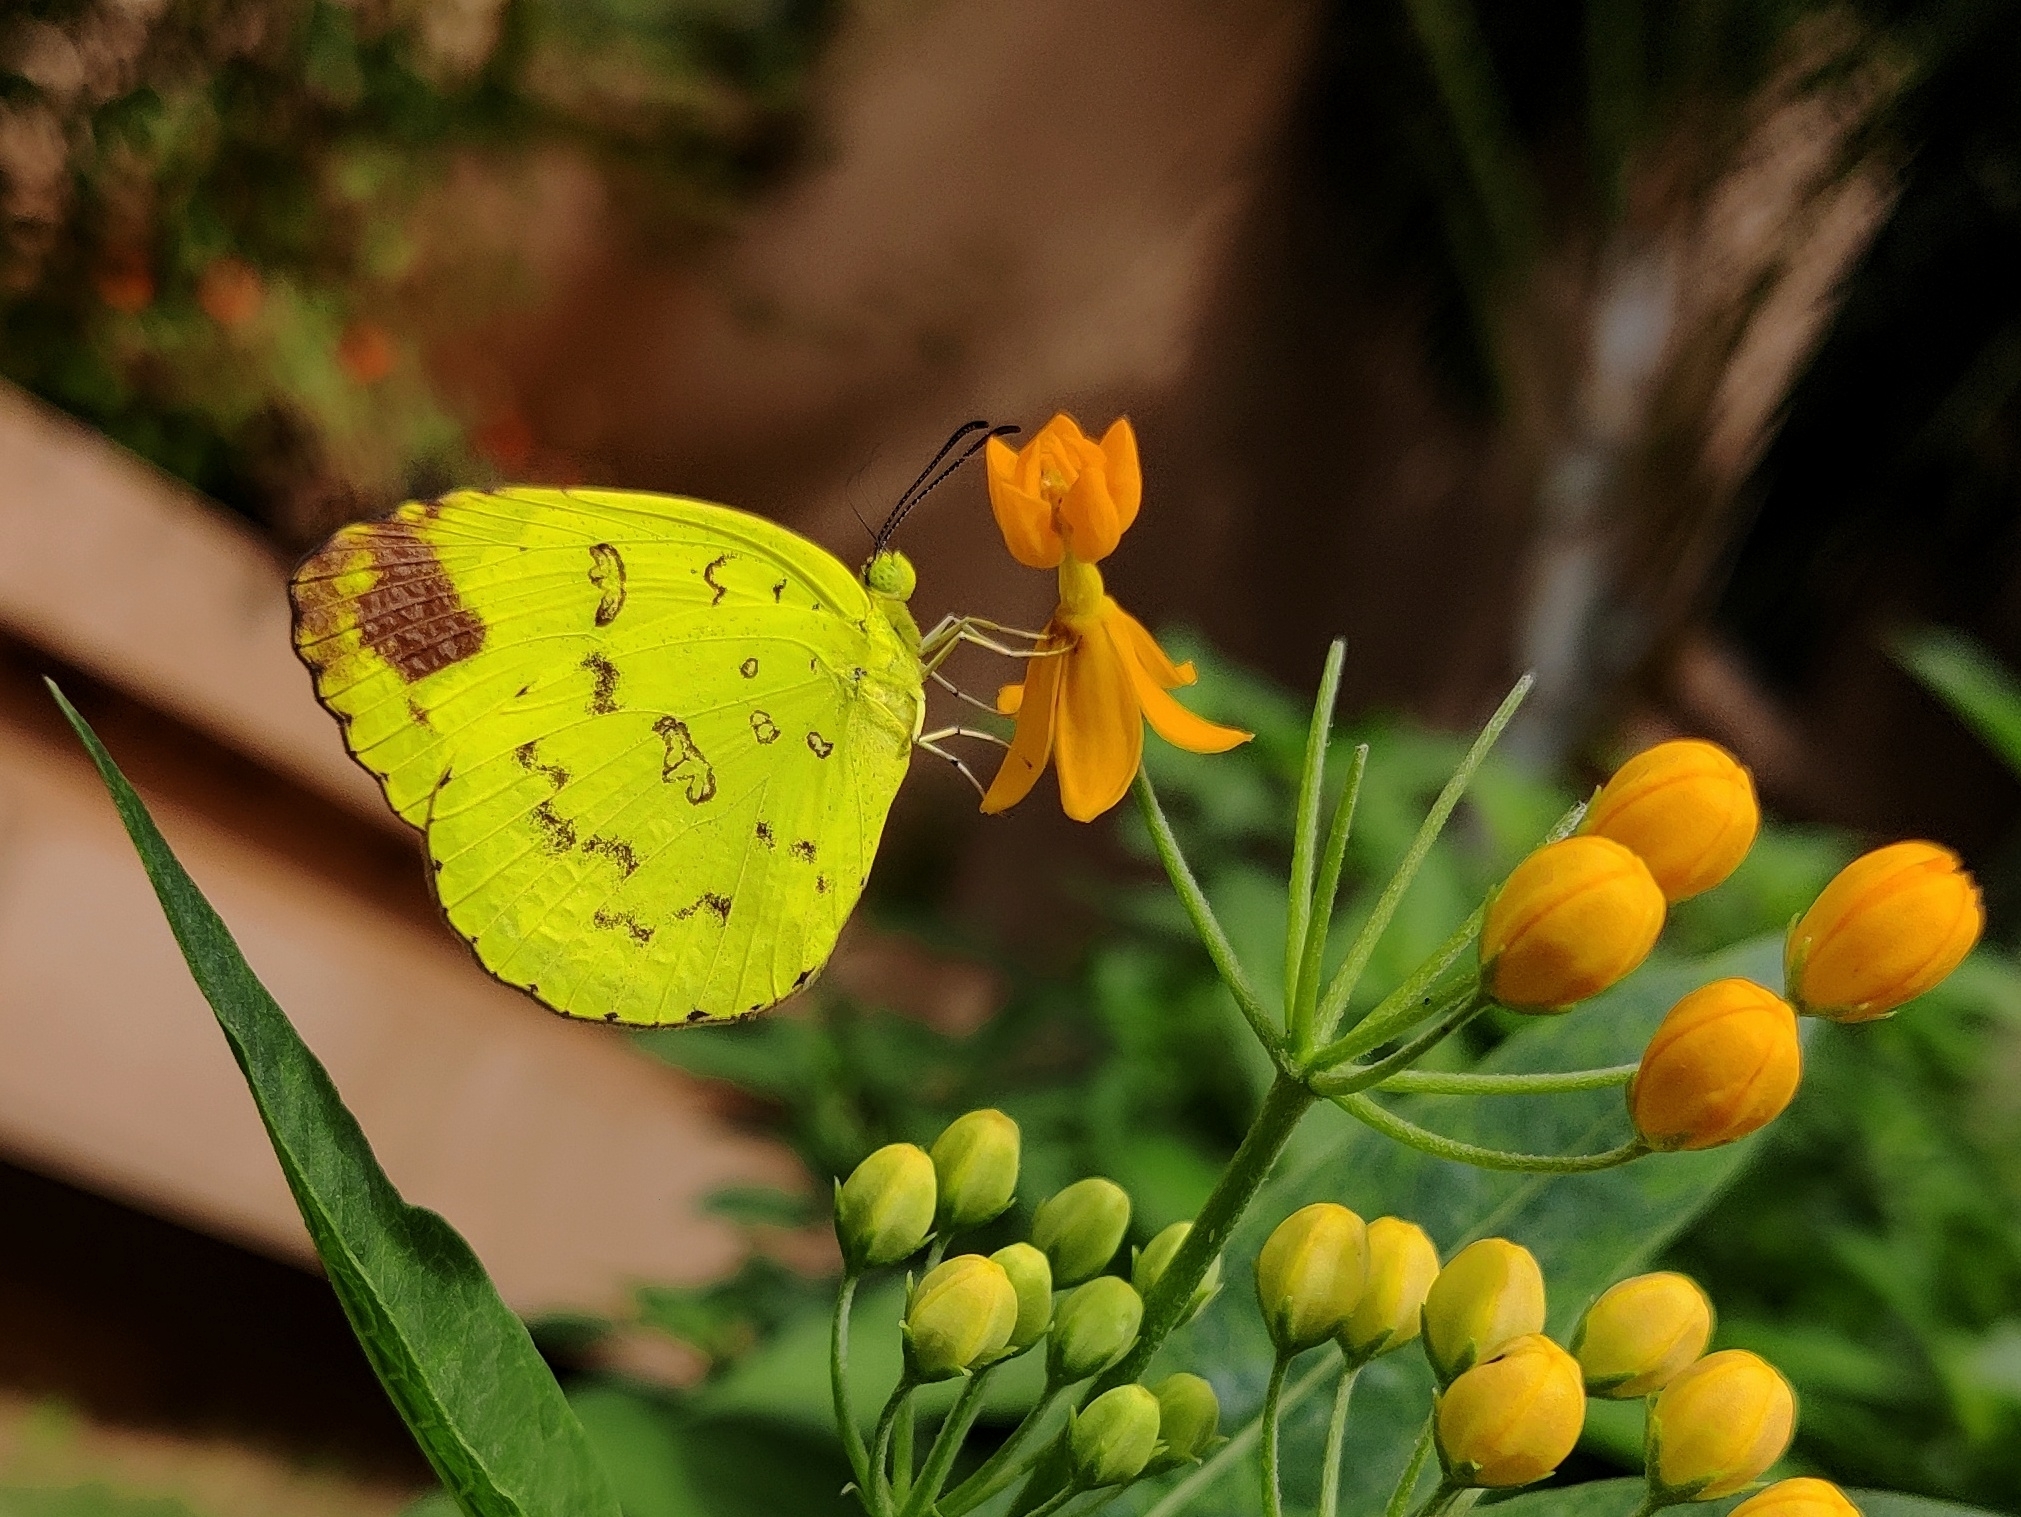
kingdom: Animalia
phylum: Arthropoda
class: Insecta
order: Lepidoptera
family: Pieridae
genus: Eurema
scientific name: Eurema blanda
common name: Three-spot grass yellow
